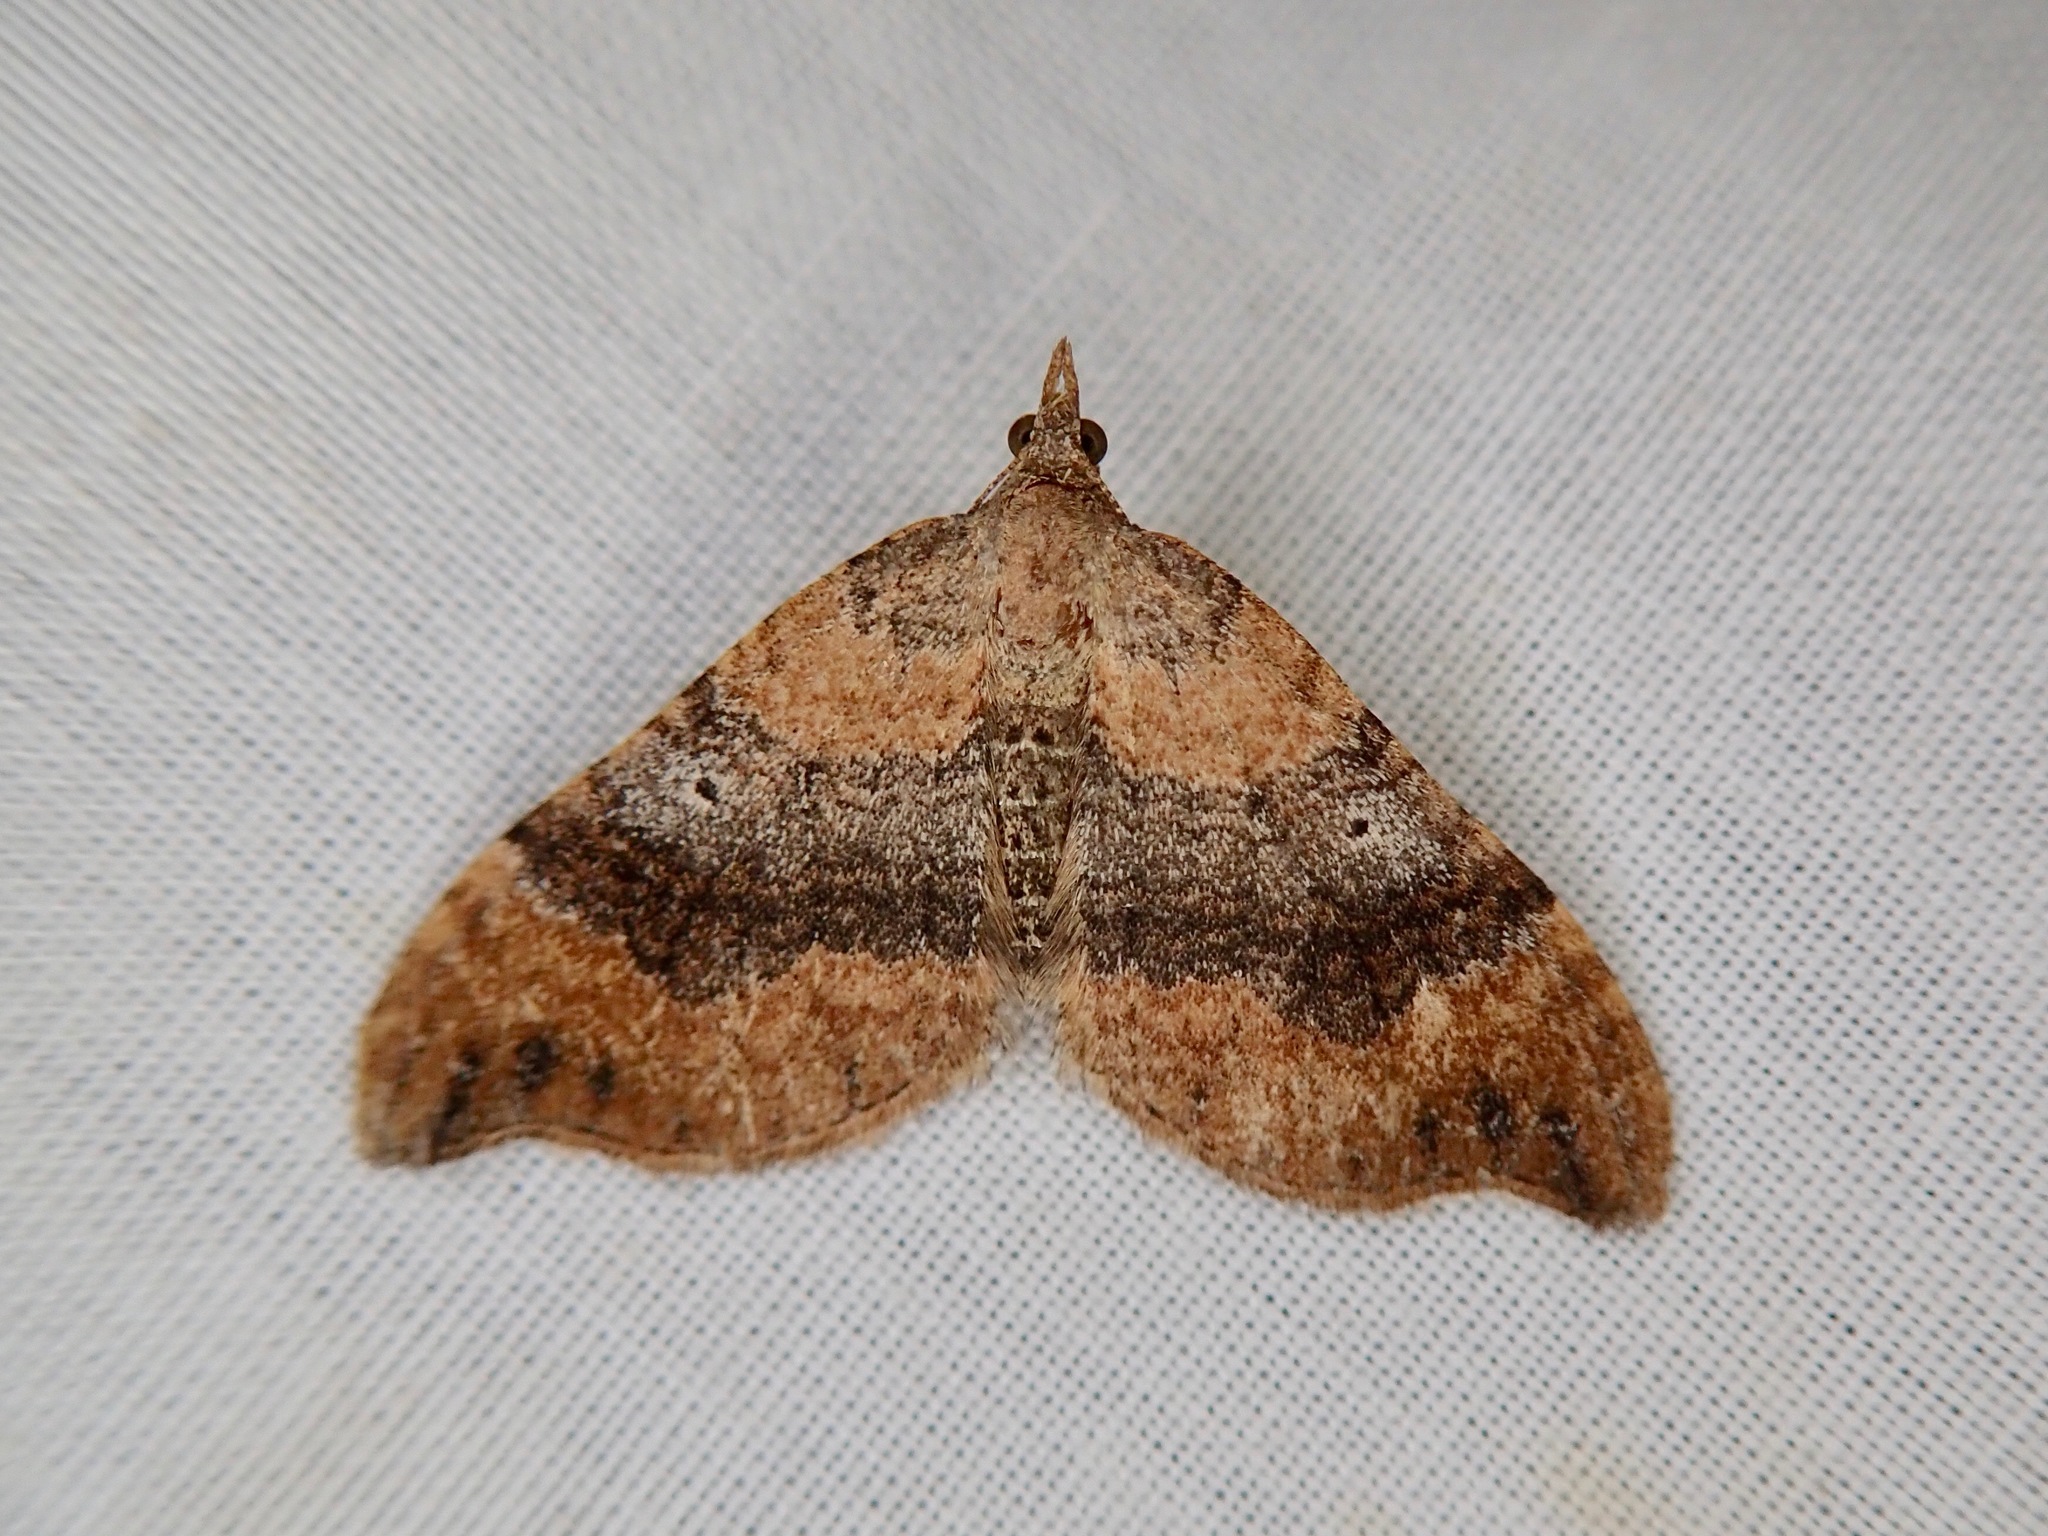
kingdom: Animalia
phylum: Arthropoda
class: Insecta
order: Lepidoptera
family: Geometridae
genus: Homodotis
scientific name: Homodotis megaspilata
